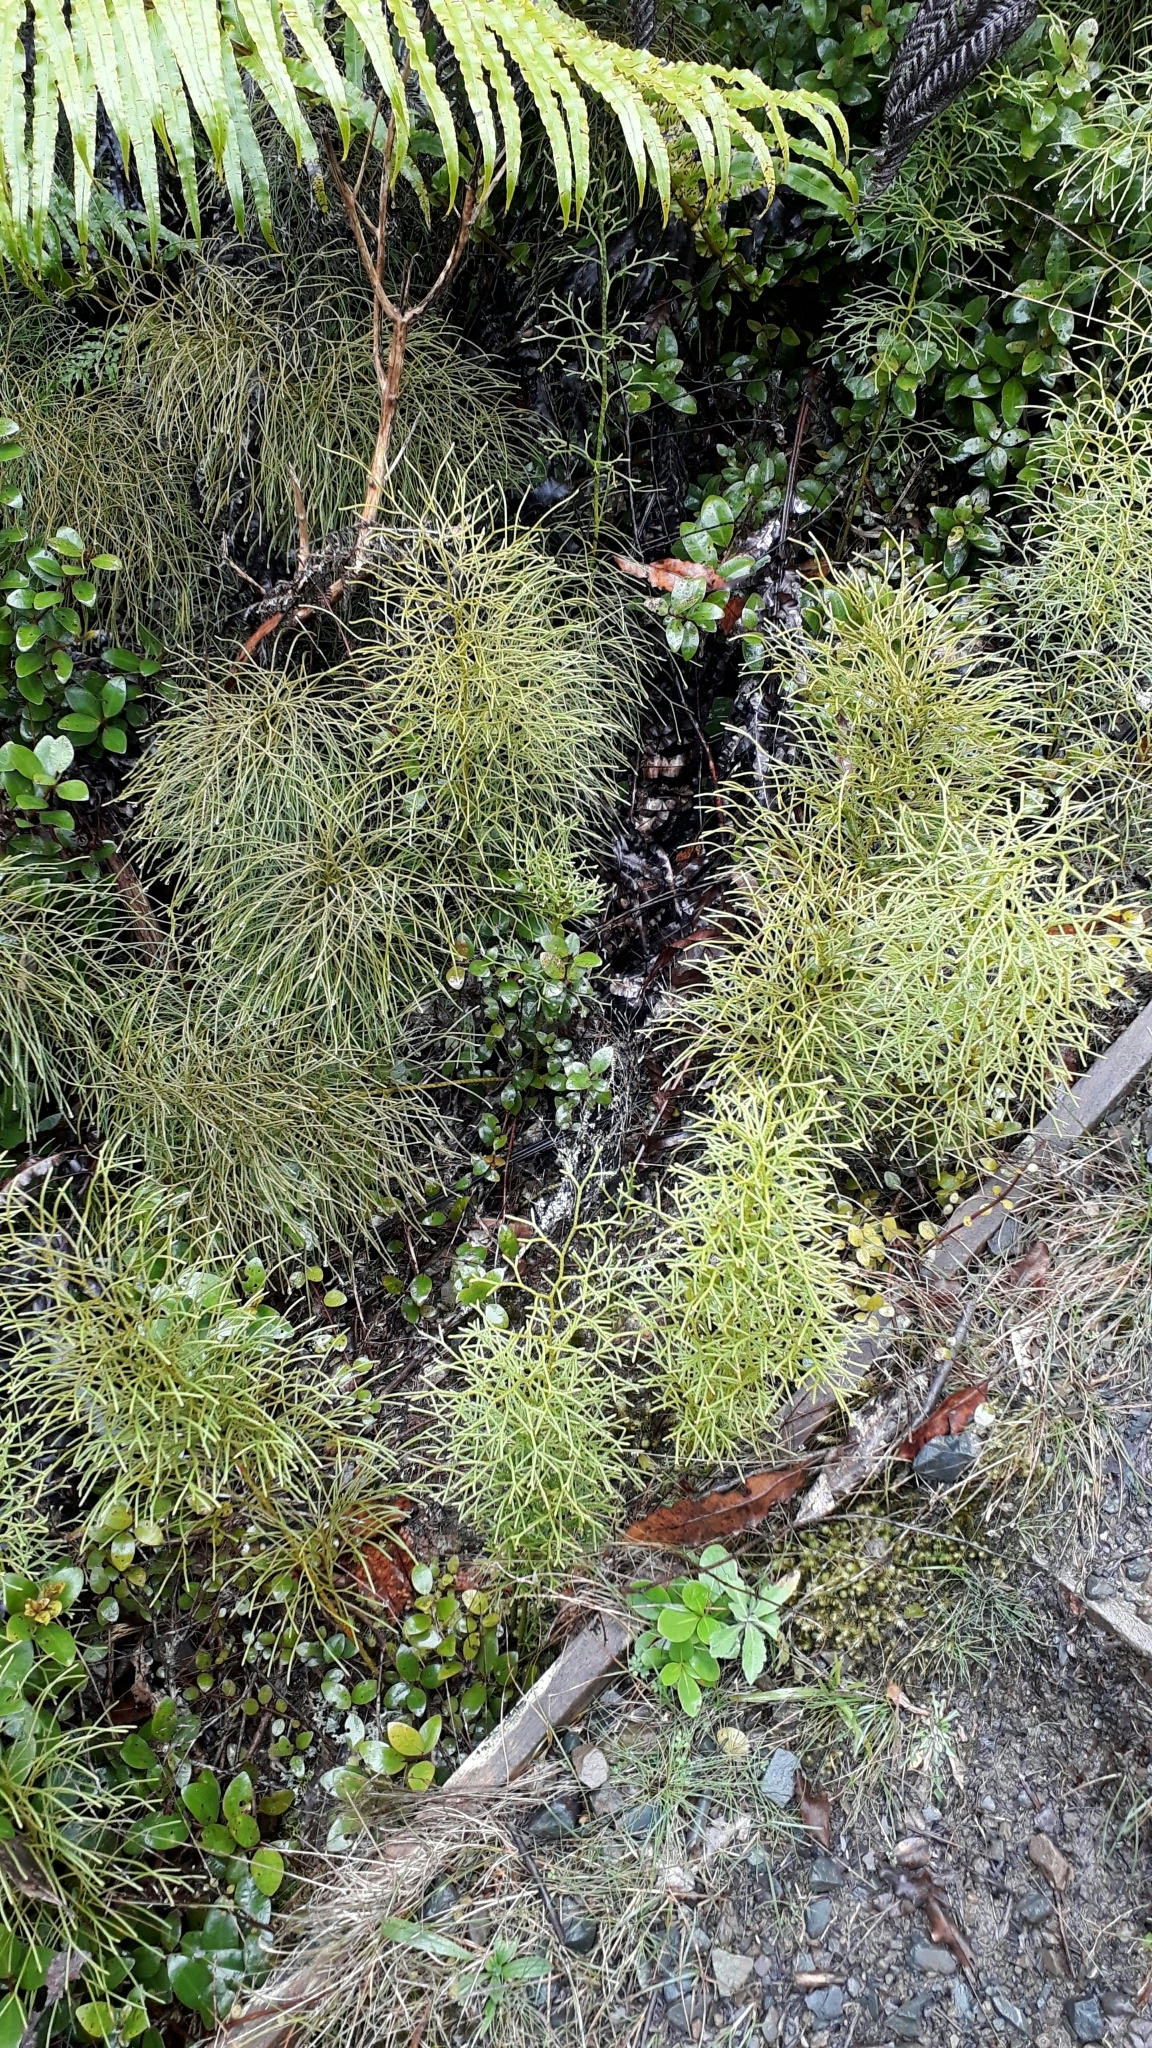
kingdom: Plantae
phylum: Tracheophyta
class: Lycopodiopsida
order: Lycopodiales
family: Lycopodiaceae
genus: Pseudolycopodium
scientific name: Pseudolycopodium densum
